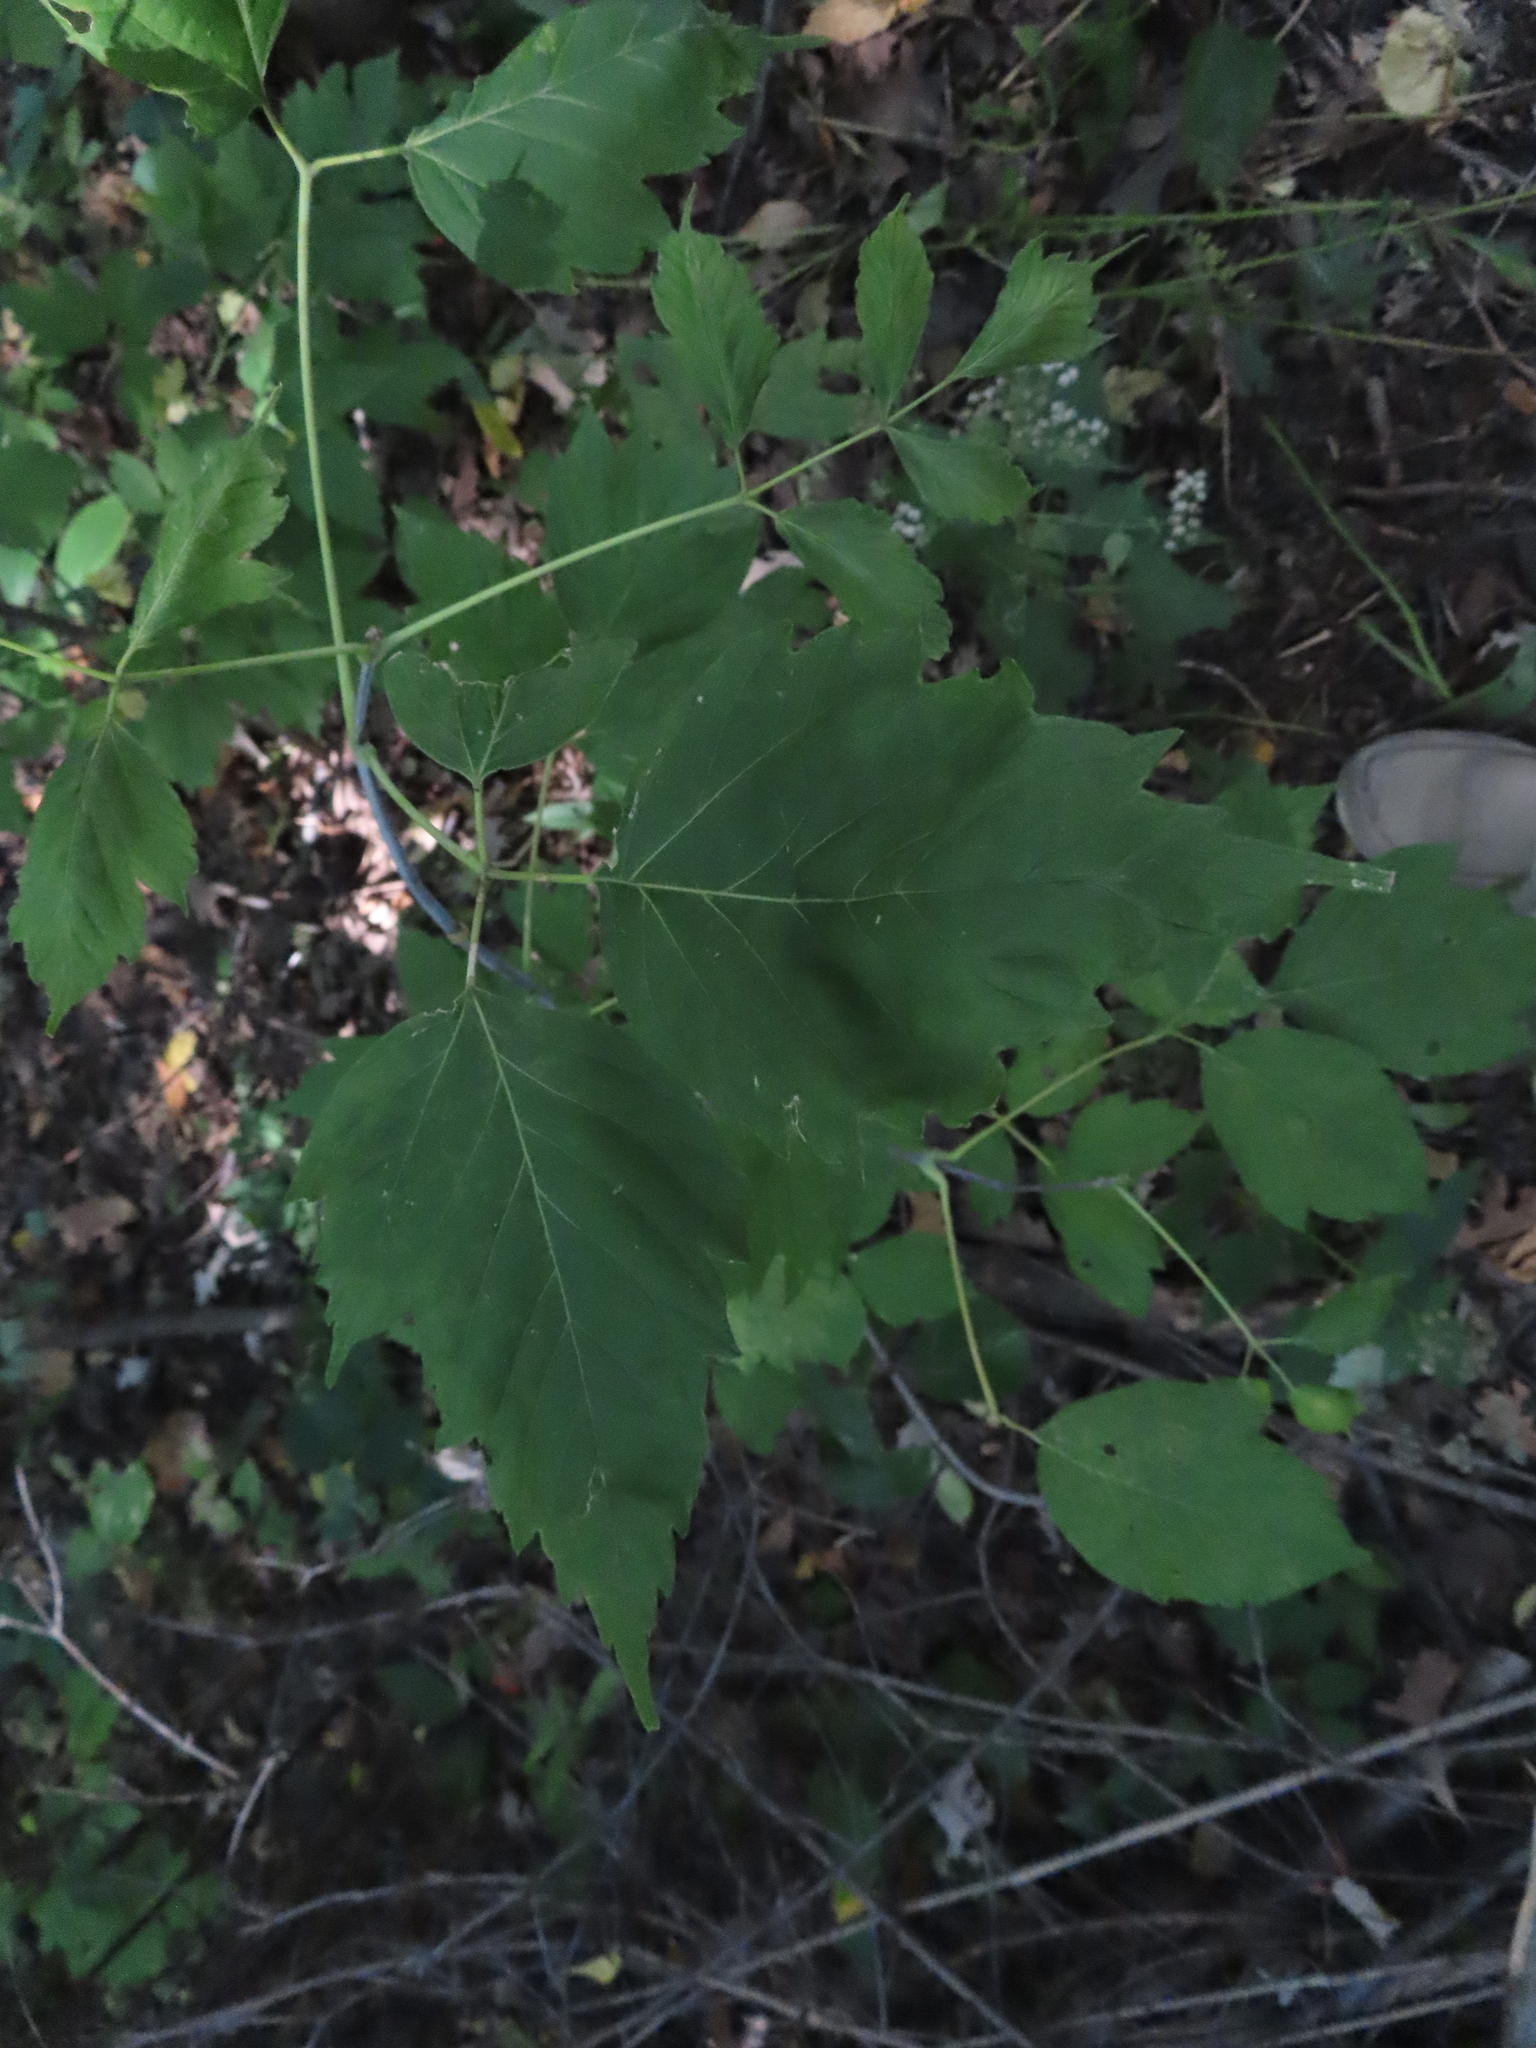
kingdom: Plantae
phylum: Tracheophyta
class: Magnoliopsida
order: Sapindales
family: Sapindaceae
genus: Acer
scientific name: Acer negundo
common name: Ashleaf maple
